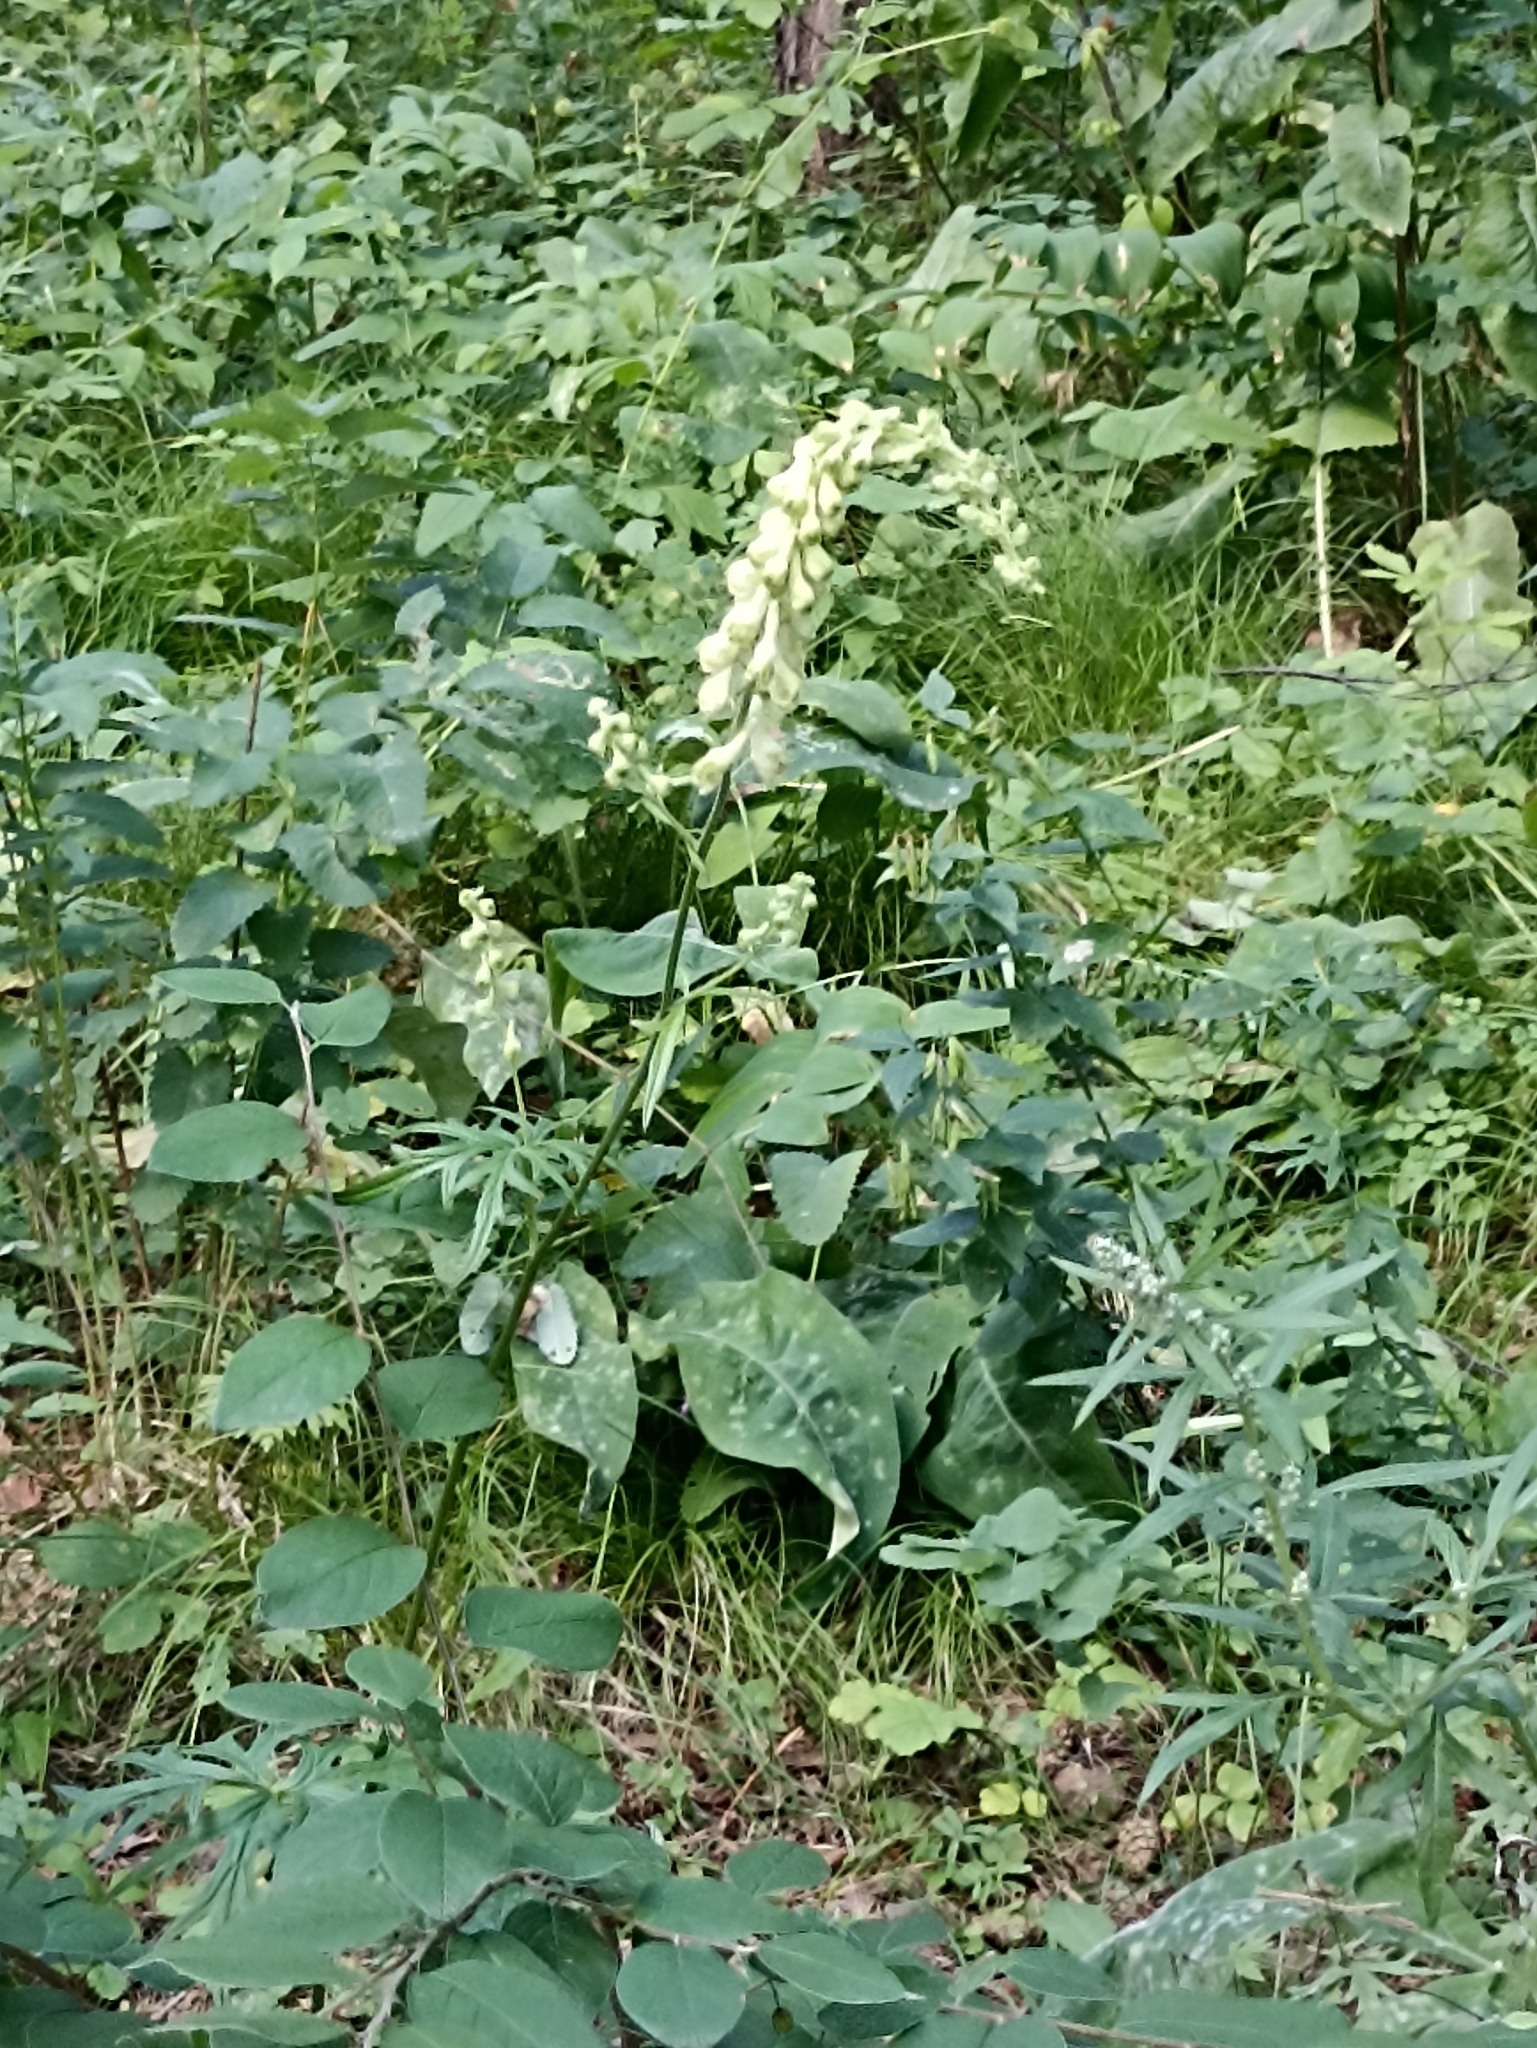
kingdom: Plantae
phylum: Tracheophyta
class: Magnoliopsida
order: Ranunculales
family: Ranunculaceae
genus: Aconitum
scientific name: Aconitum barbatum
